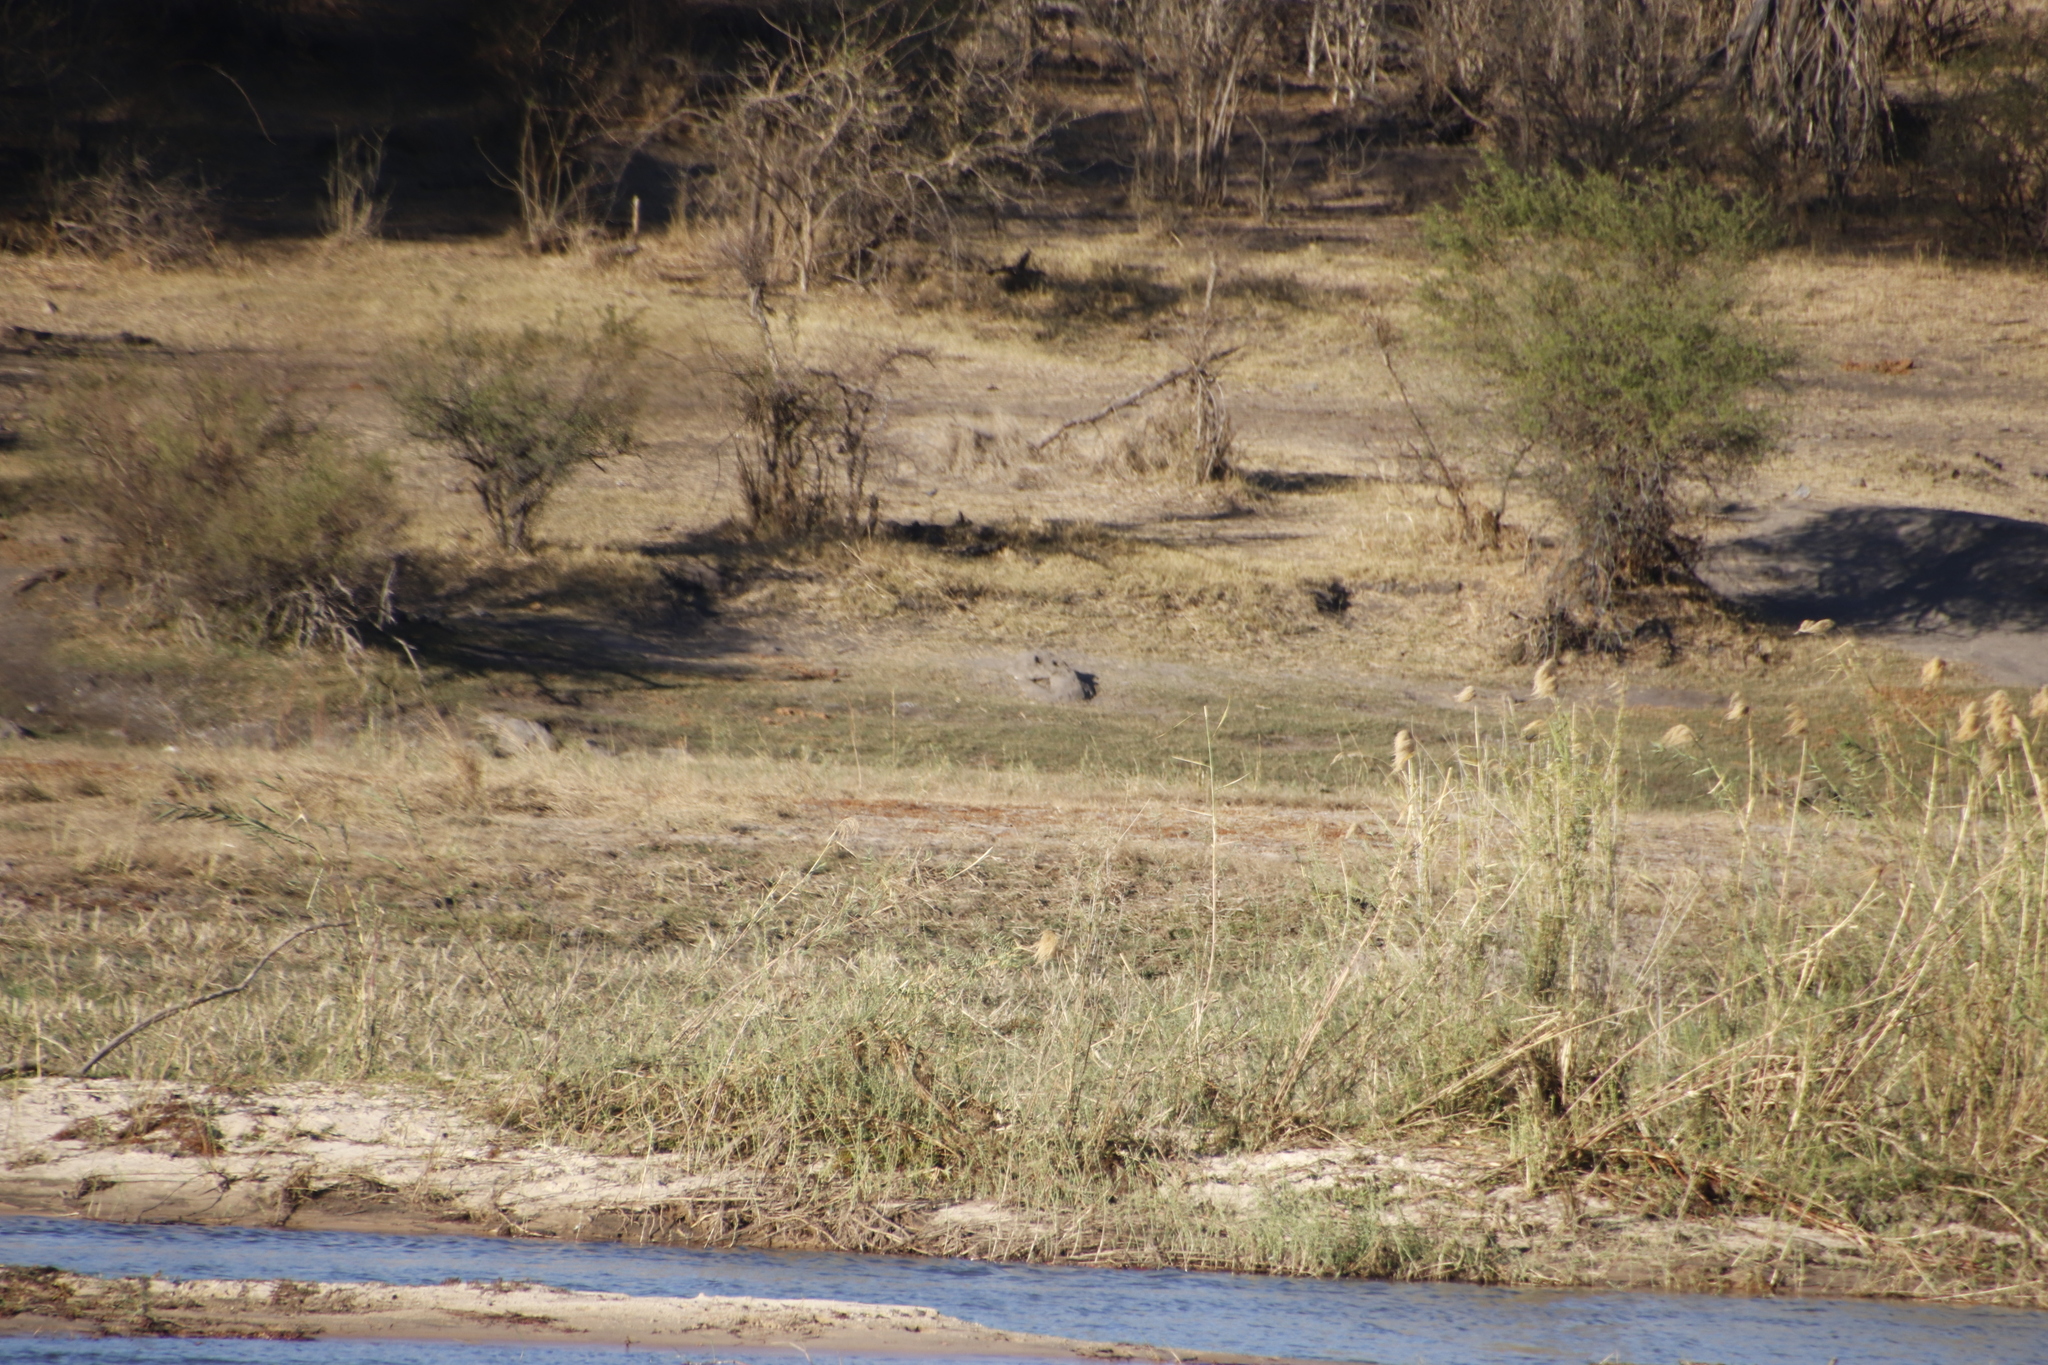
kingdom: Animalia
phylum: Chordata
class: Crocodylia
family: Crocodylidae
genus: Crocodylus
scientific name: Crocodylus niloticus
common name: Nile crocodile
